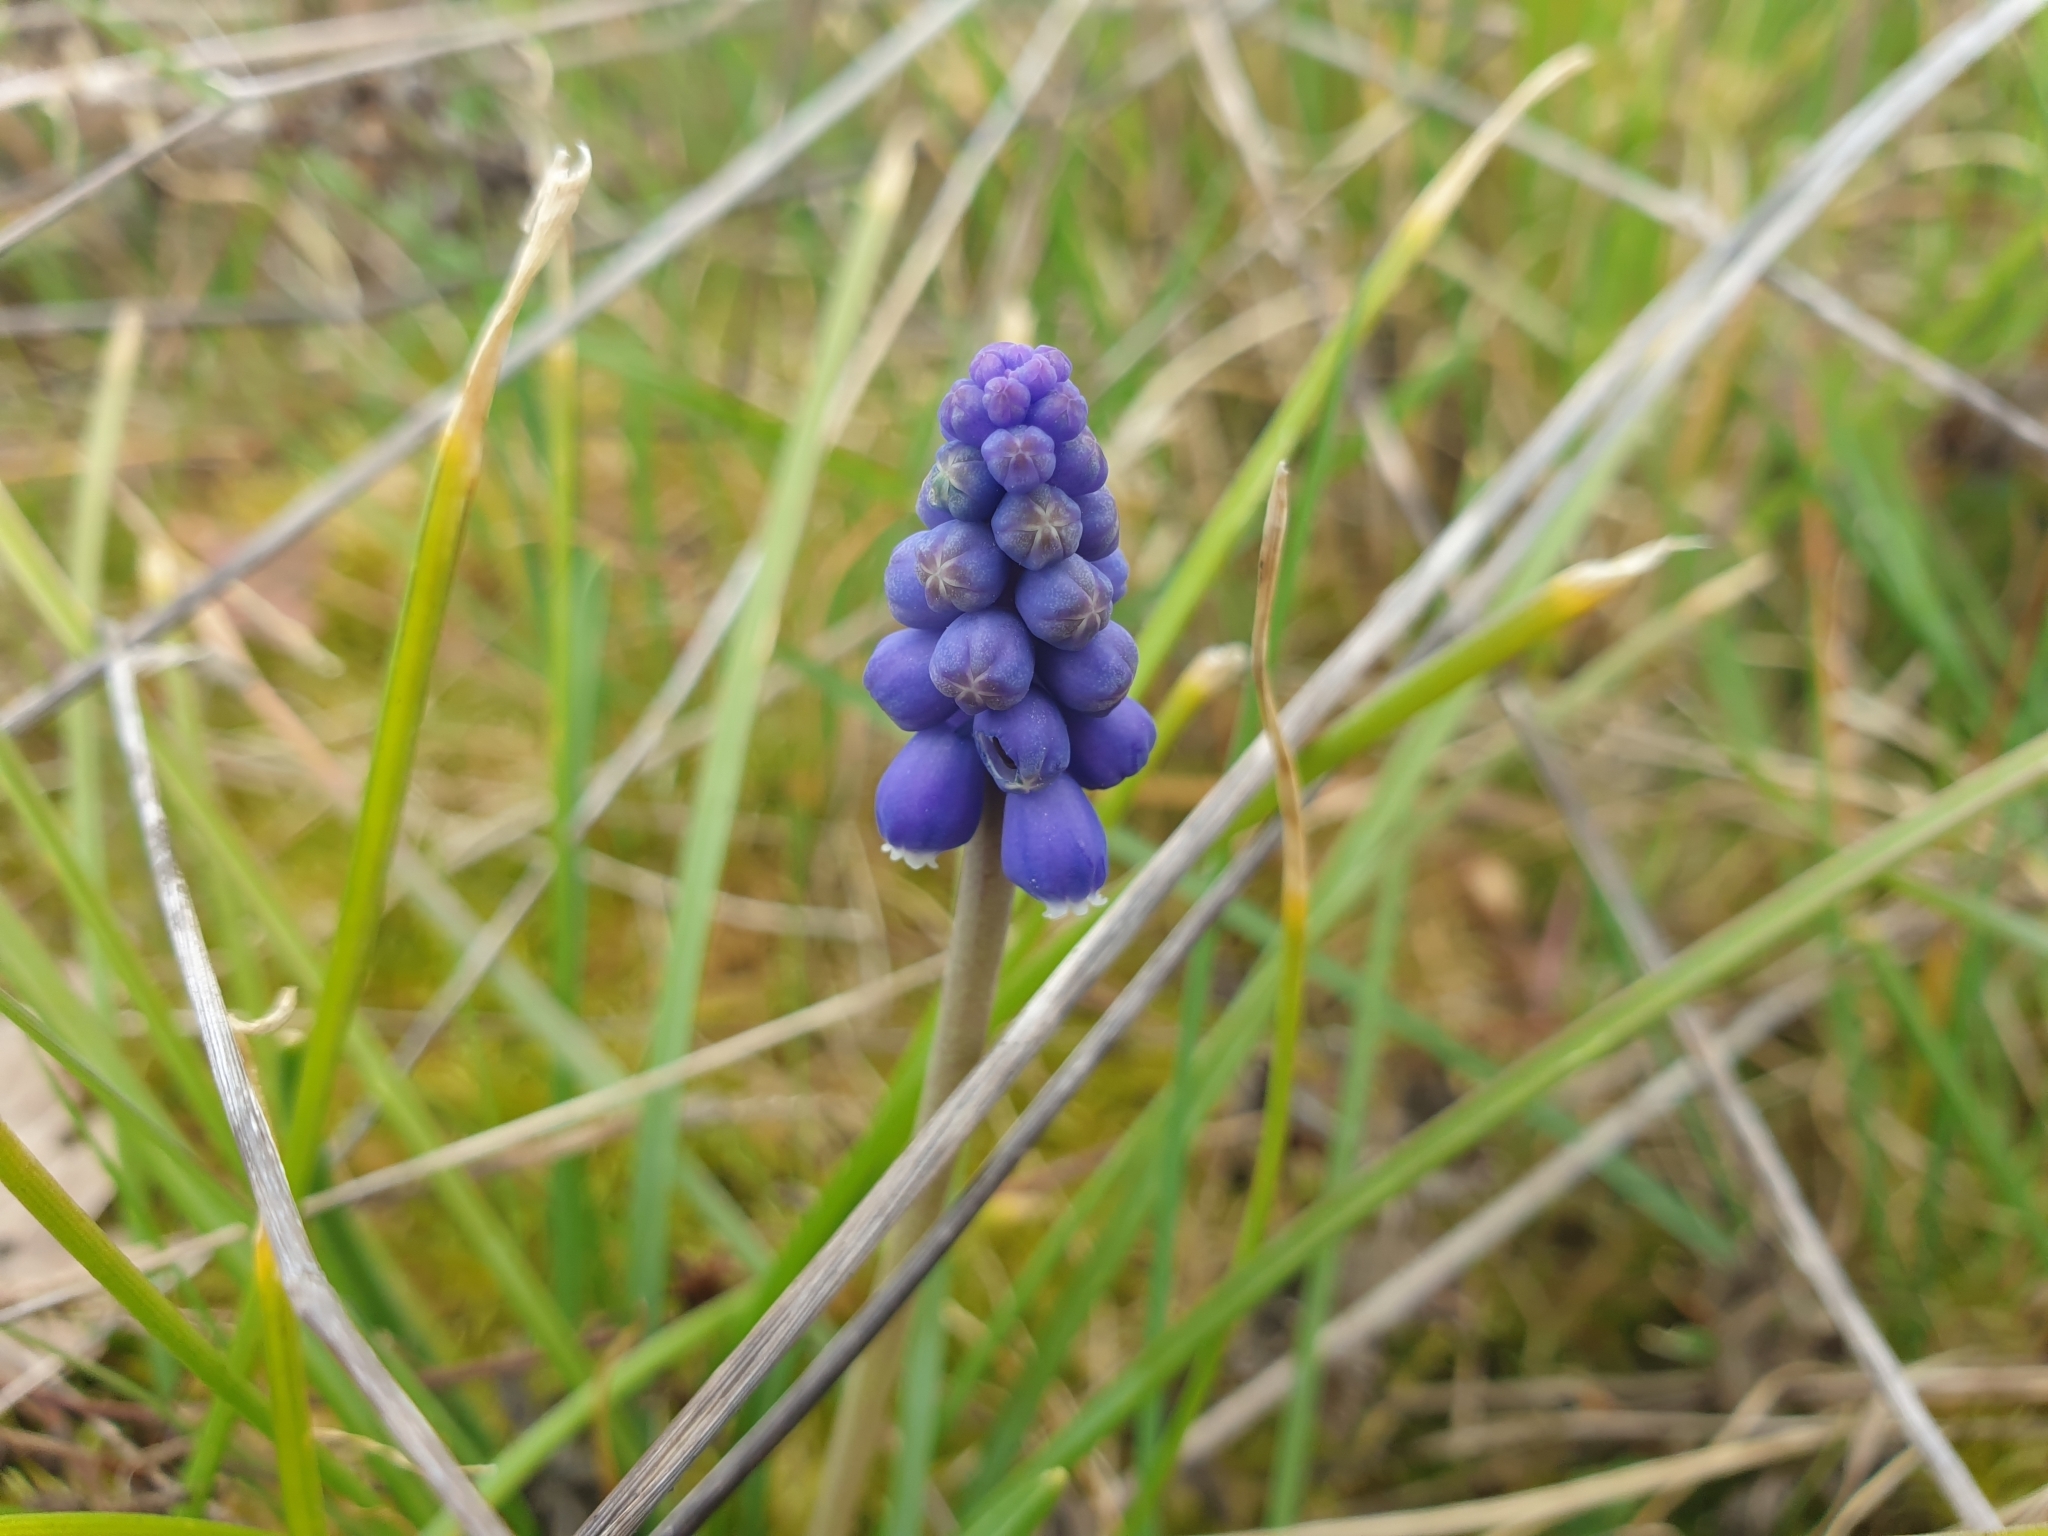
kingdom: Plantae
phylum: Tracheophyta
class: Liliopsida
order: Asparagales
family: Asparagaceae
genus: Muscari
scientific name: Muscari neglectum
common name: Grape-hyacinth
